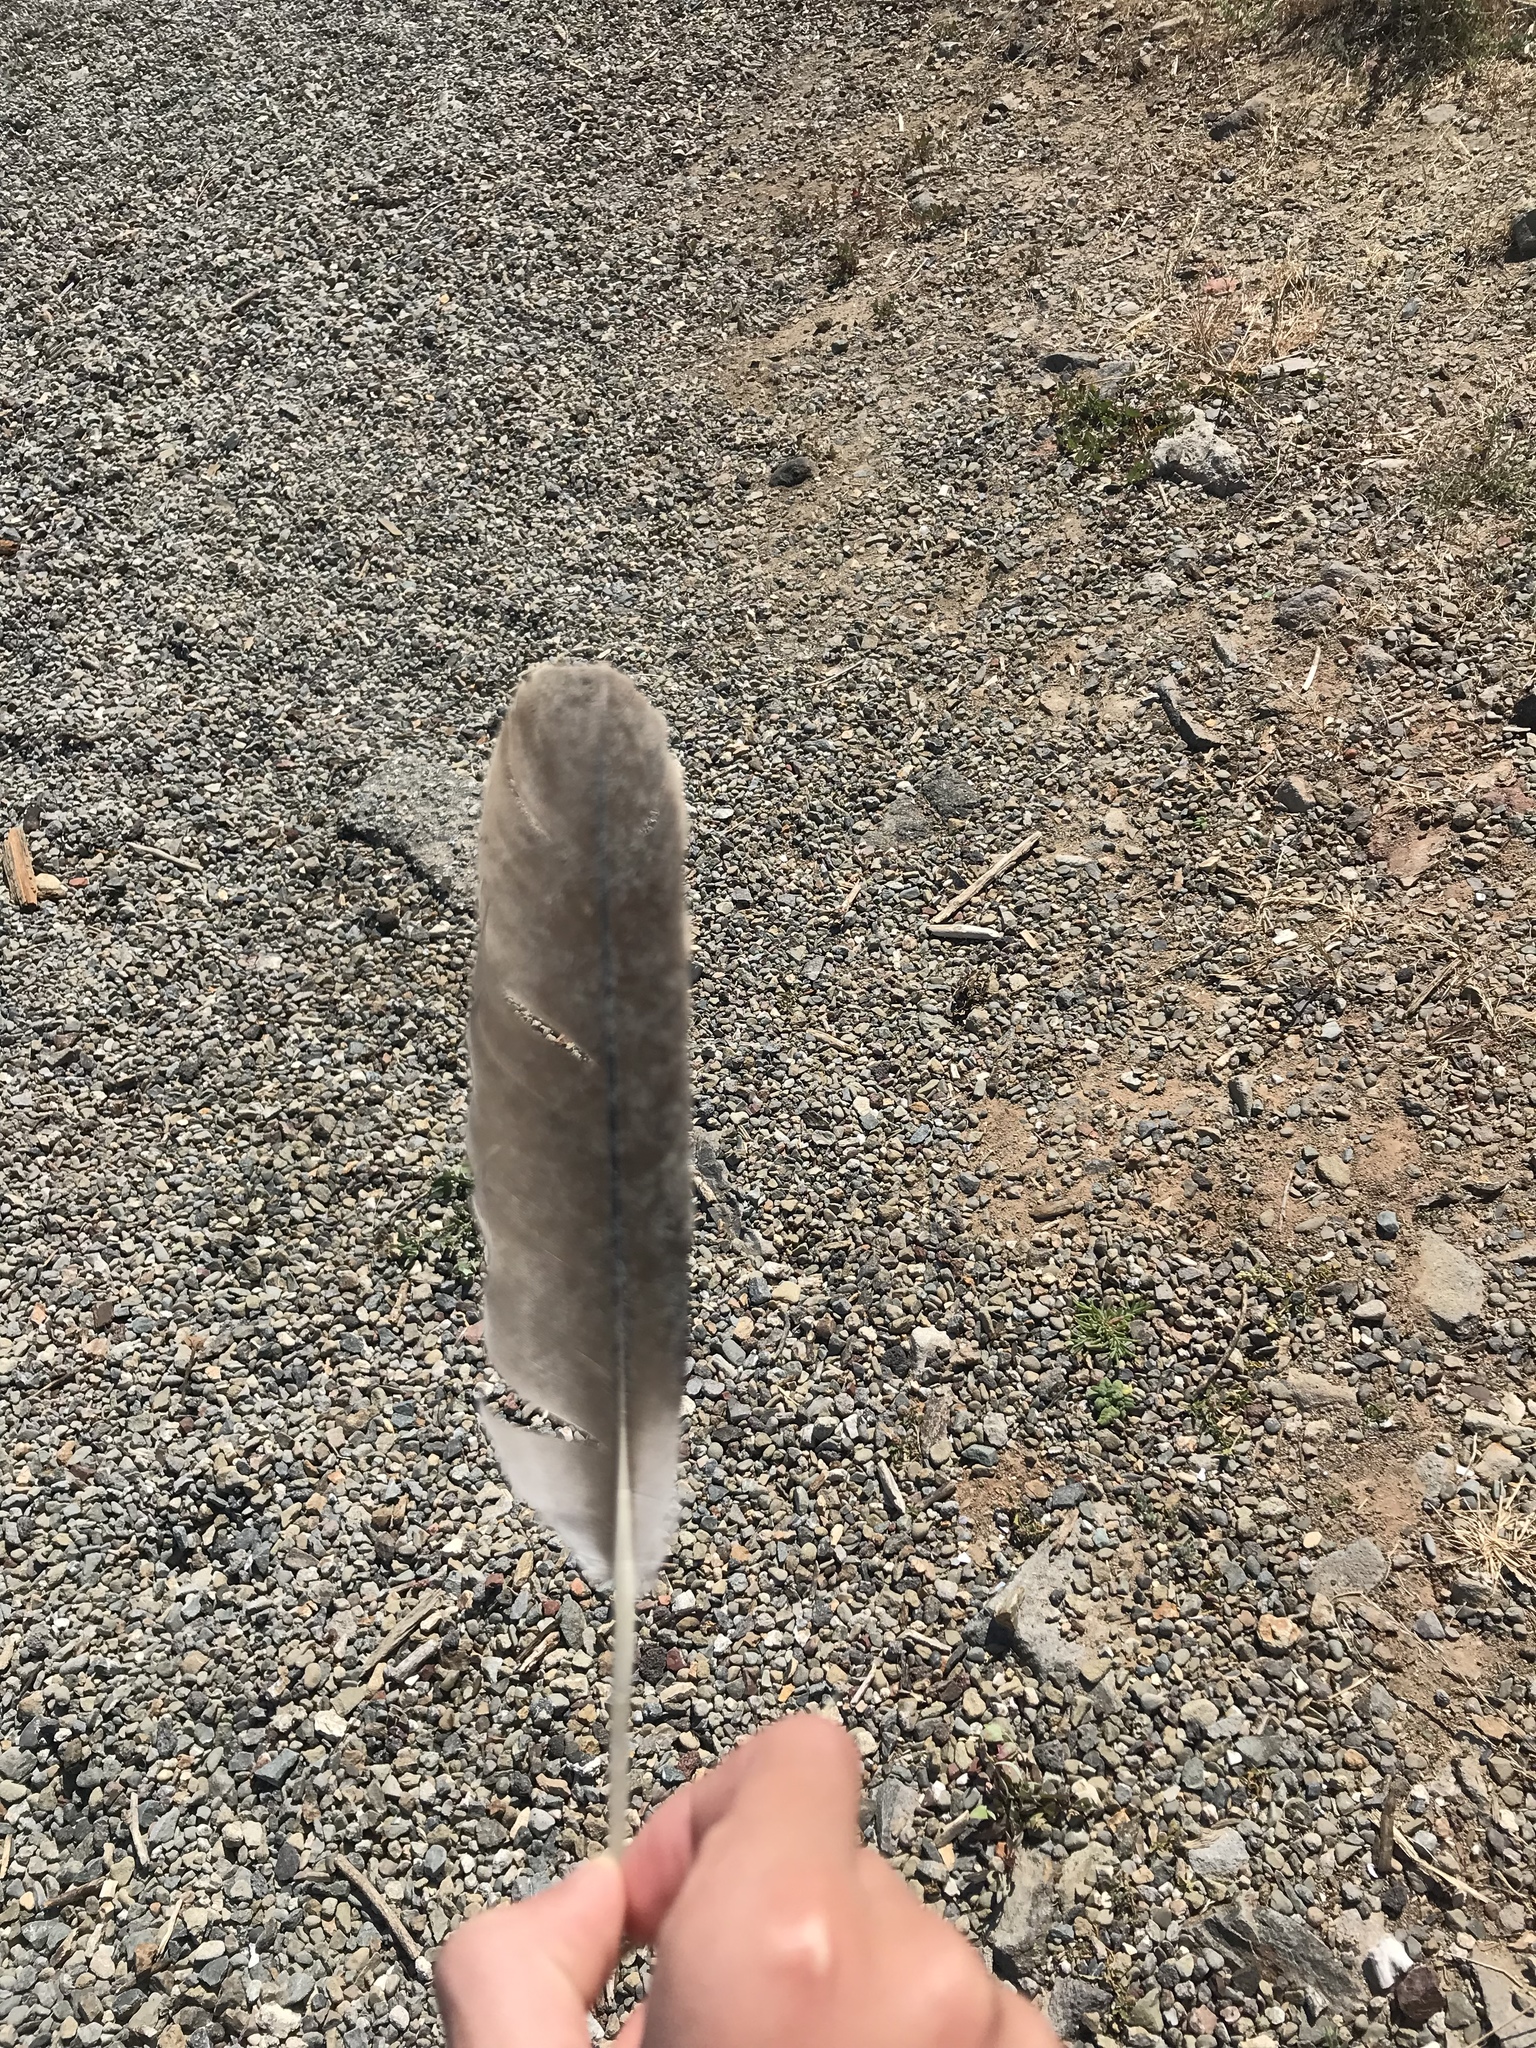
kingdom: Animalia
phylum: Chordata
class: Aves
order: Passeriformes
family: Tyrannidae
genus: Tyrannus
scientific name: Tyrannus verticalis
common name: Western kingbird
